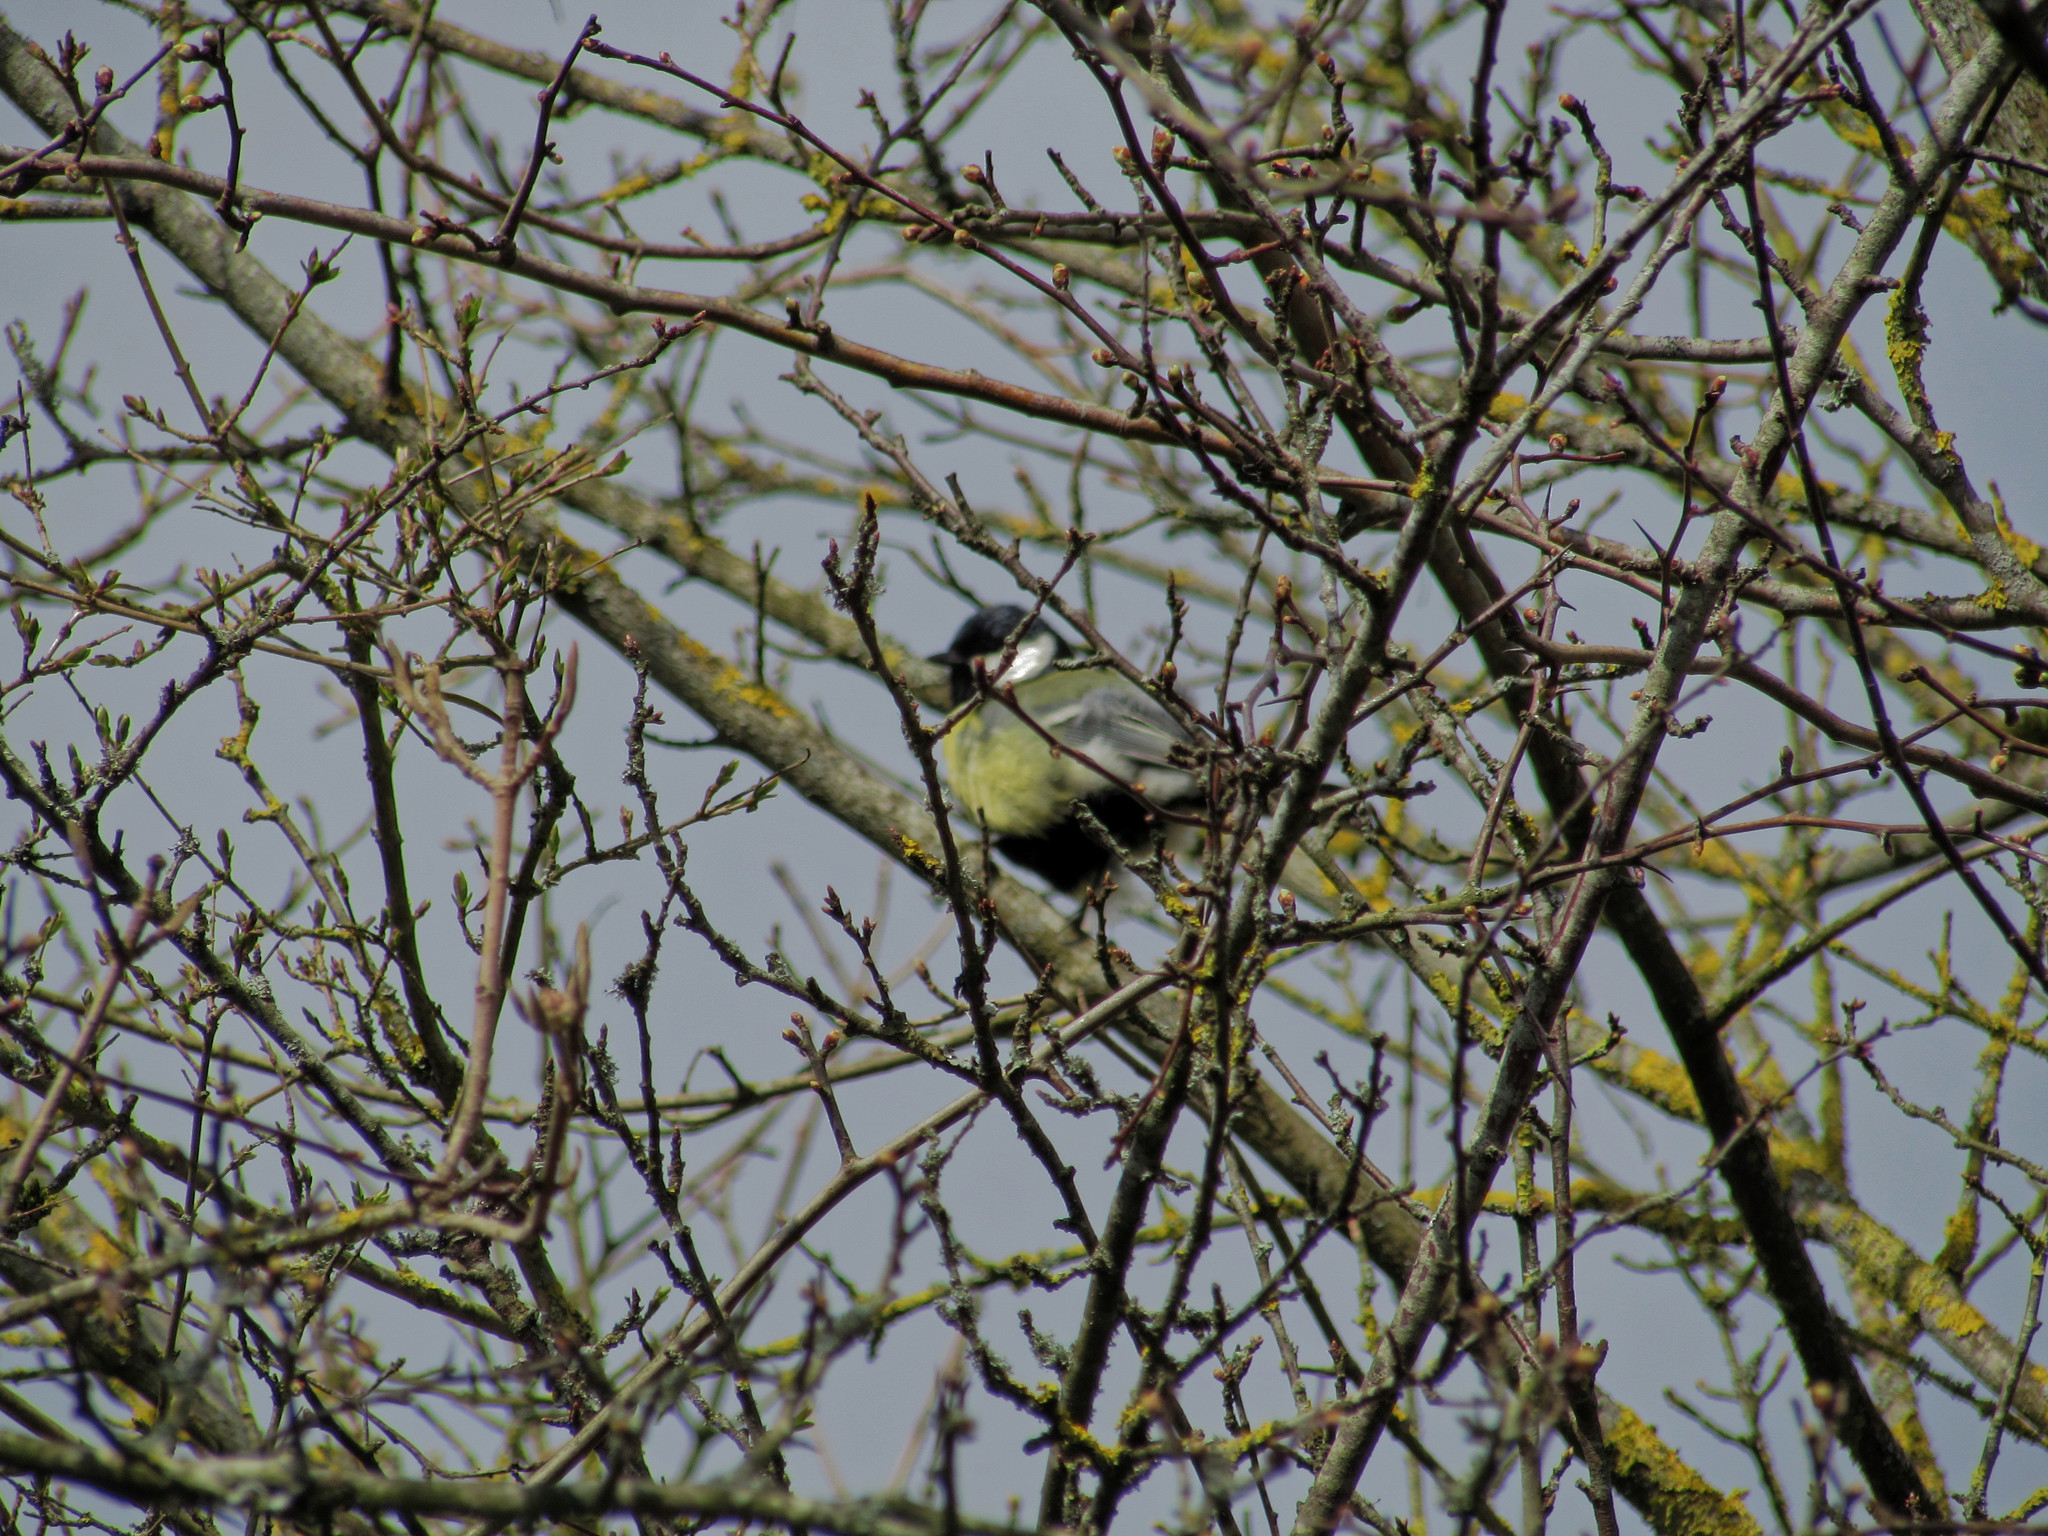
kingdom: Animalia
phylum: Chordata
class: Aves
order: Passeriformes
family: Paridae
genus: Parus
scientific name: Parus major
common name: Great tit
